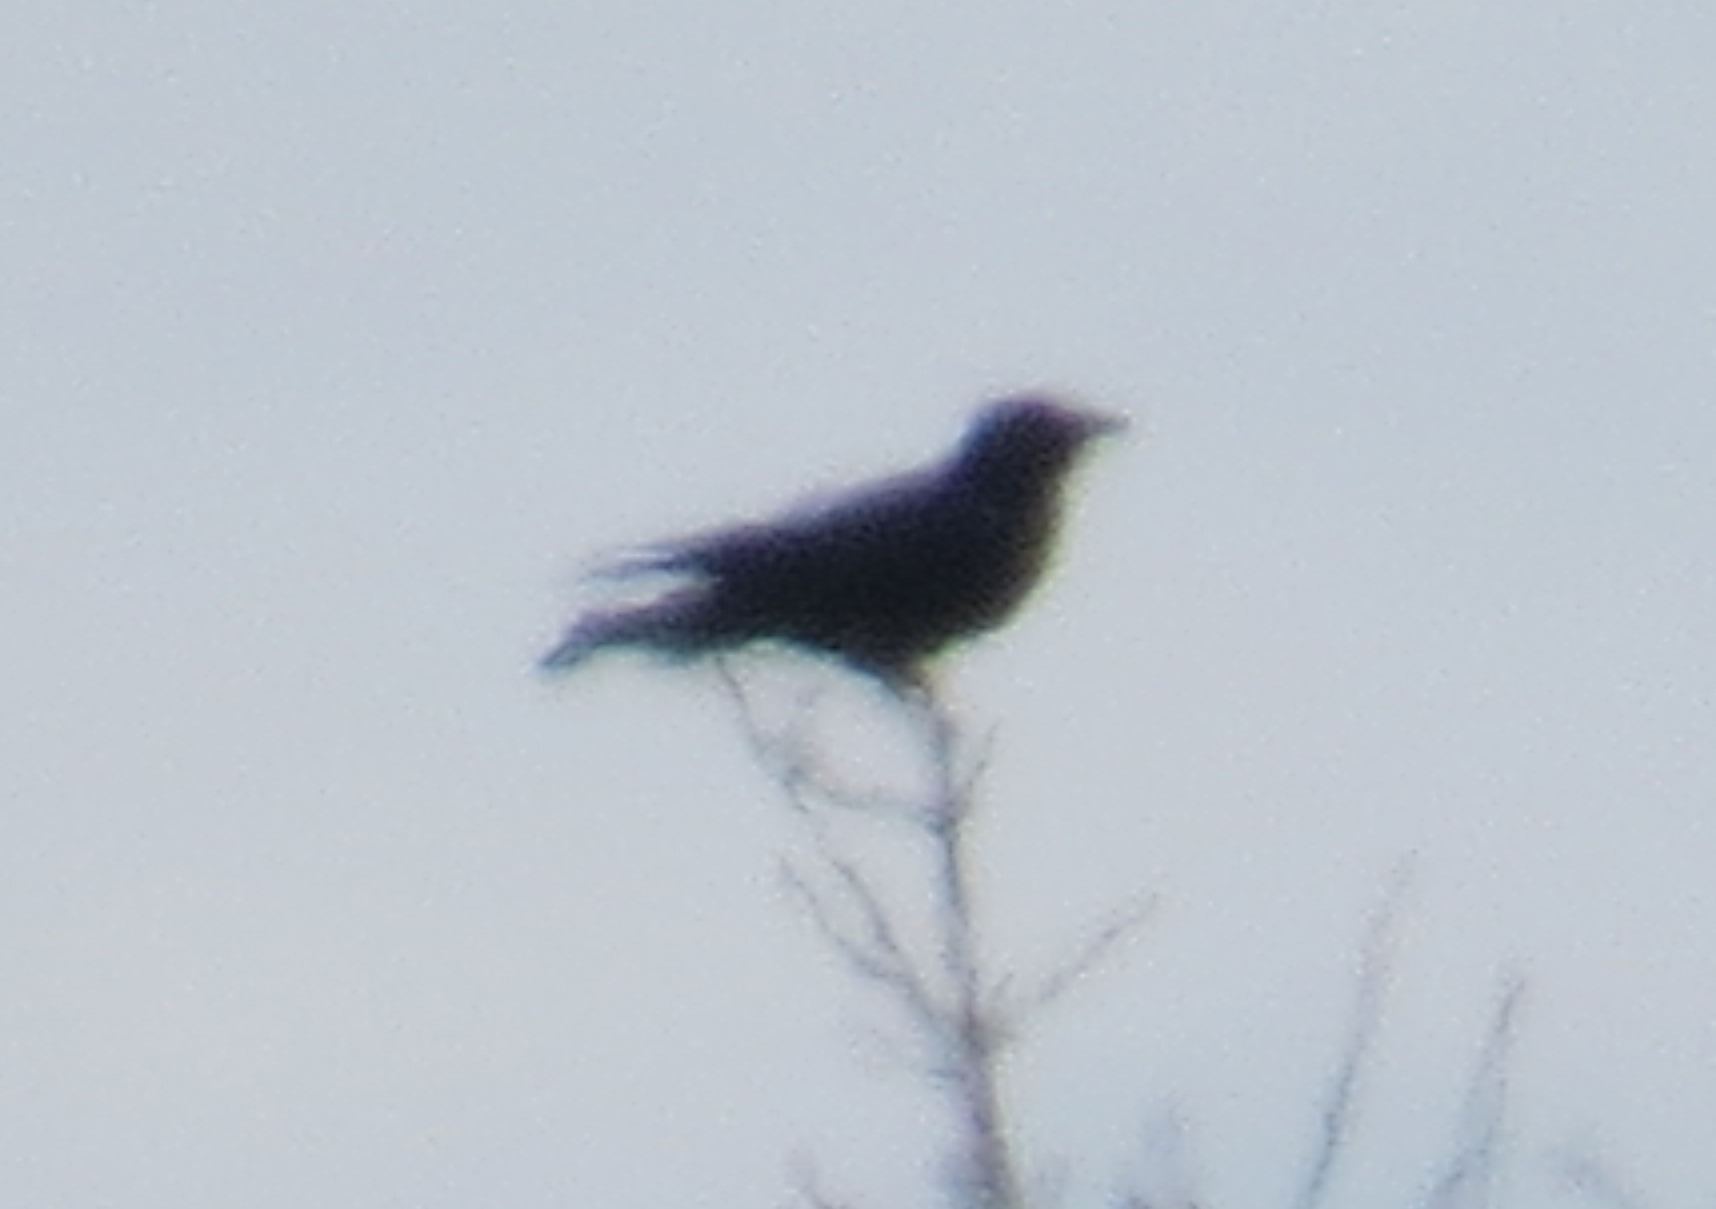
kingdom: Animalia
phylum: Chordata
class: Aves
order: Passeriformes
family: Corvidae
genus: Corvus
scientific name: Corvus corax
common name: Common raven
